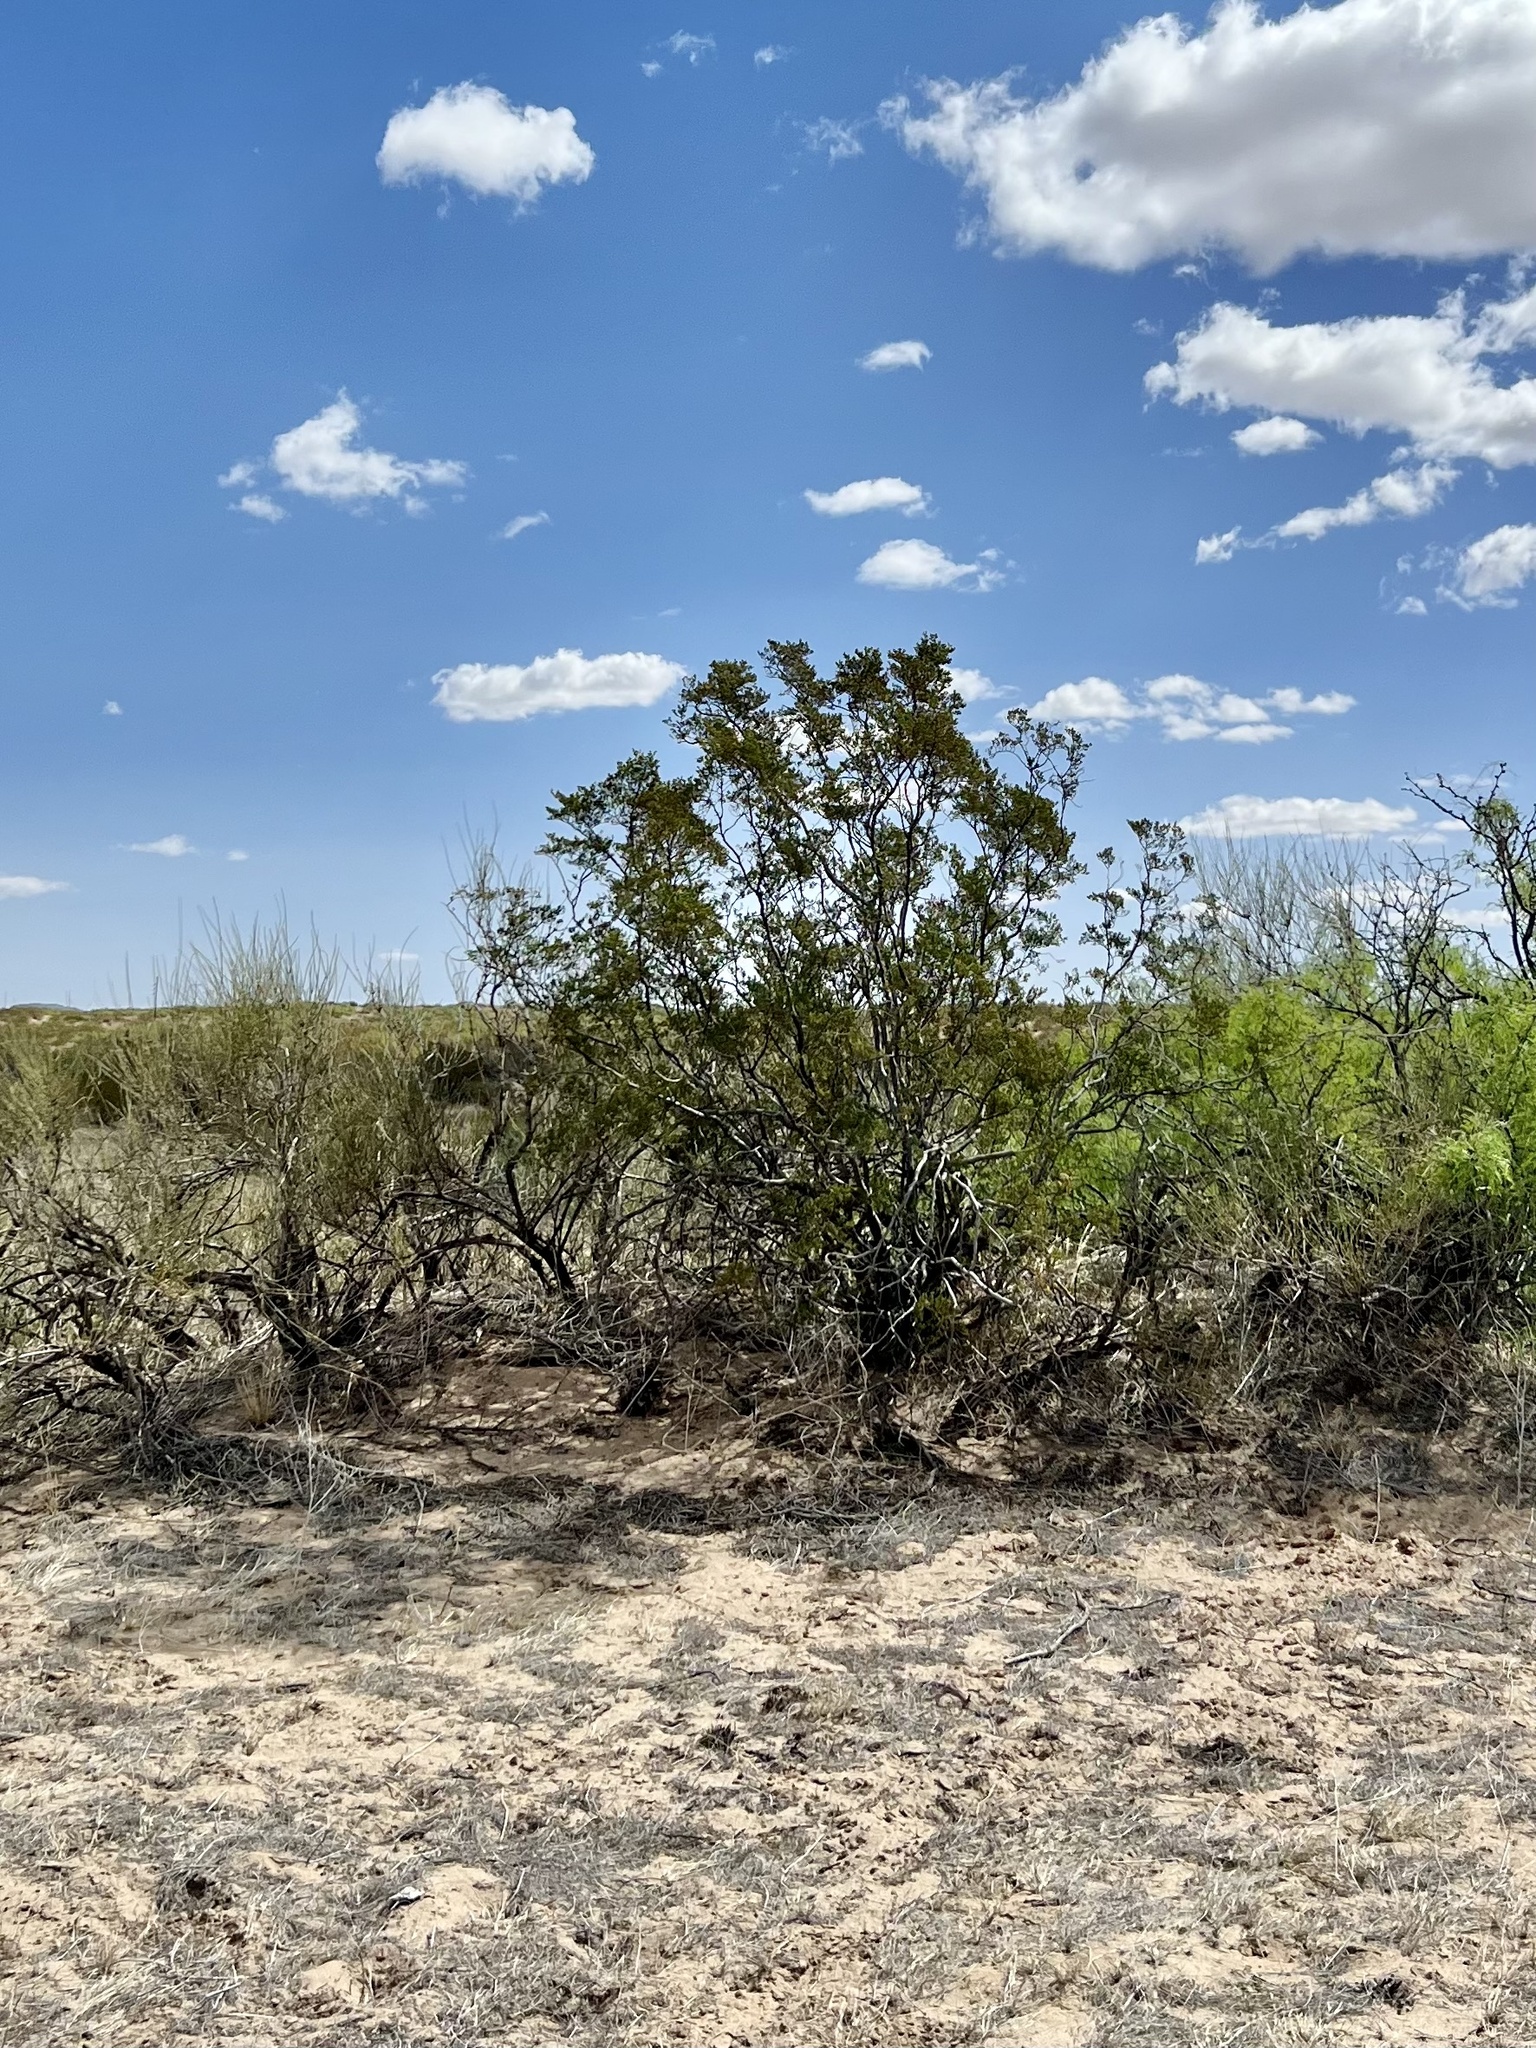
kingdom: Plantae
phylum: Tracheophyta
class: Magnoliopsida
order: Zygophyllales
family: Zygophyllaceae
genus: Larrea
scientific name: Larrea tridentata
